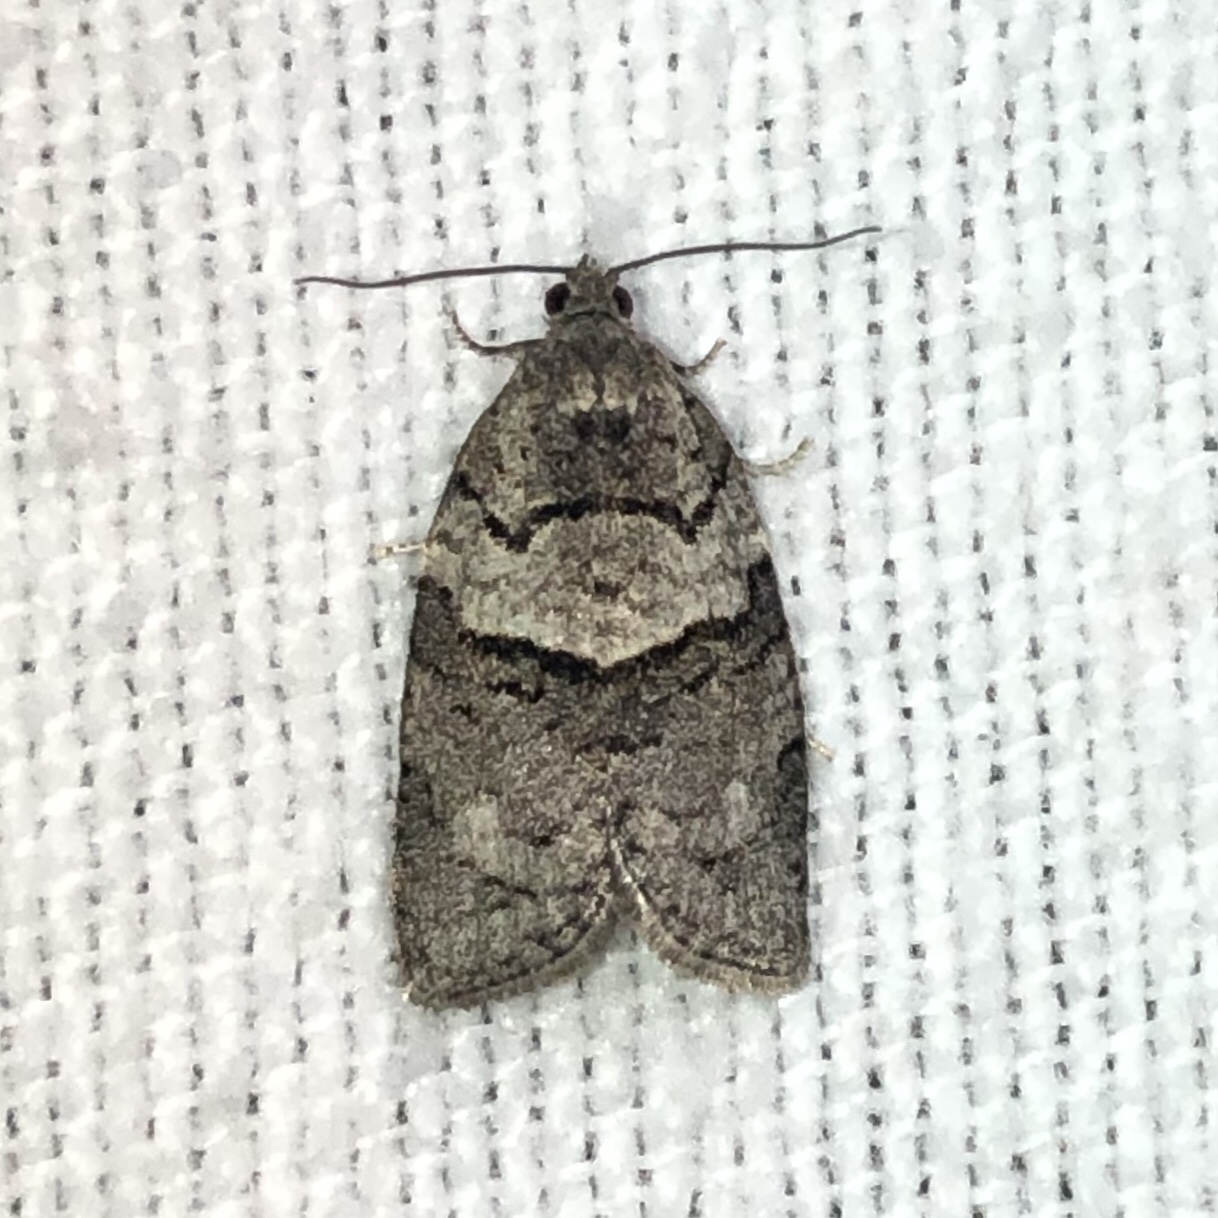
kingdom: Animalia
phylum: Arthropoda
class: Insecta
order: Lepidoptera
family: Tortricidae
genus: Syndemis
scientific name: Syndemis afflictana
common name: Gray leafroller moth
